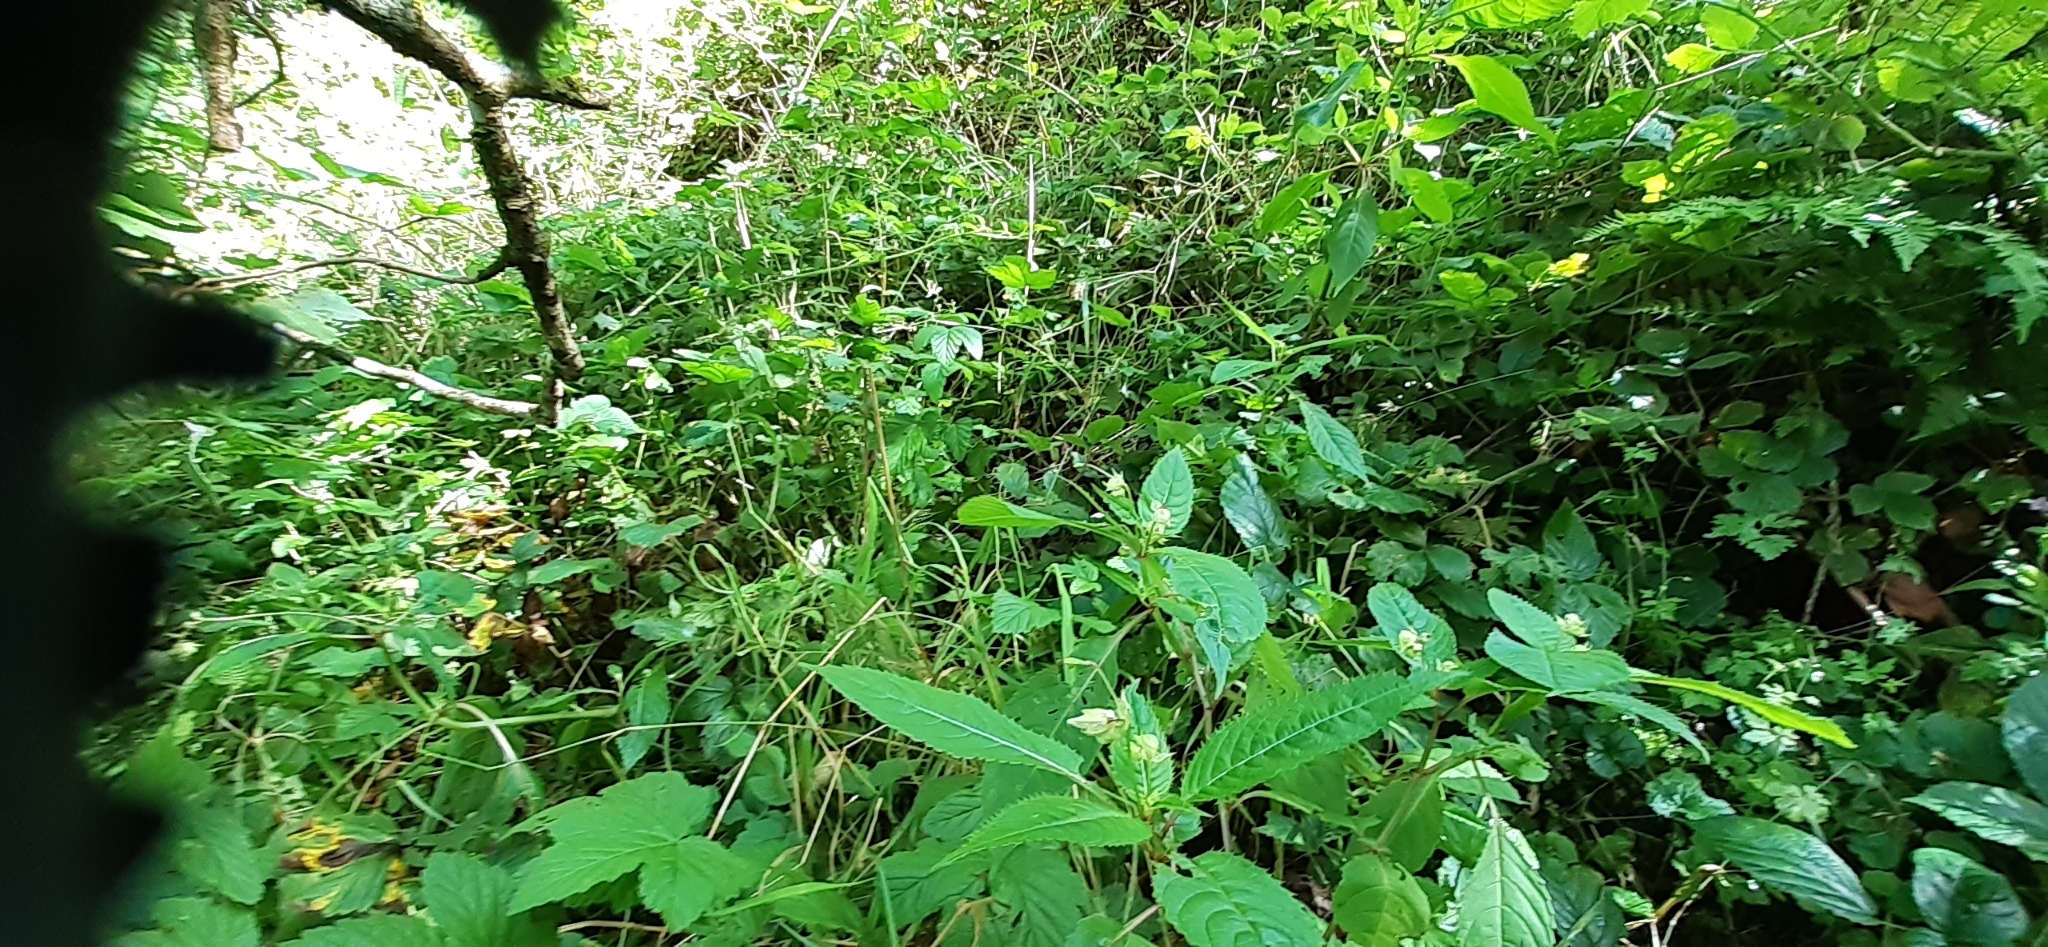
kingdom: Plantae
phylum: Tracheophyta
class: Magnoliopsida
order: Ericales
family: Balsaminaceae
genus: Impatiens
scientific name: Impatiens glandulifera
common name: Himalayan balsam
